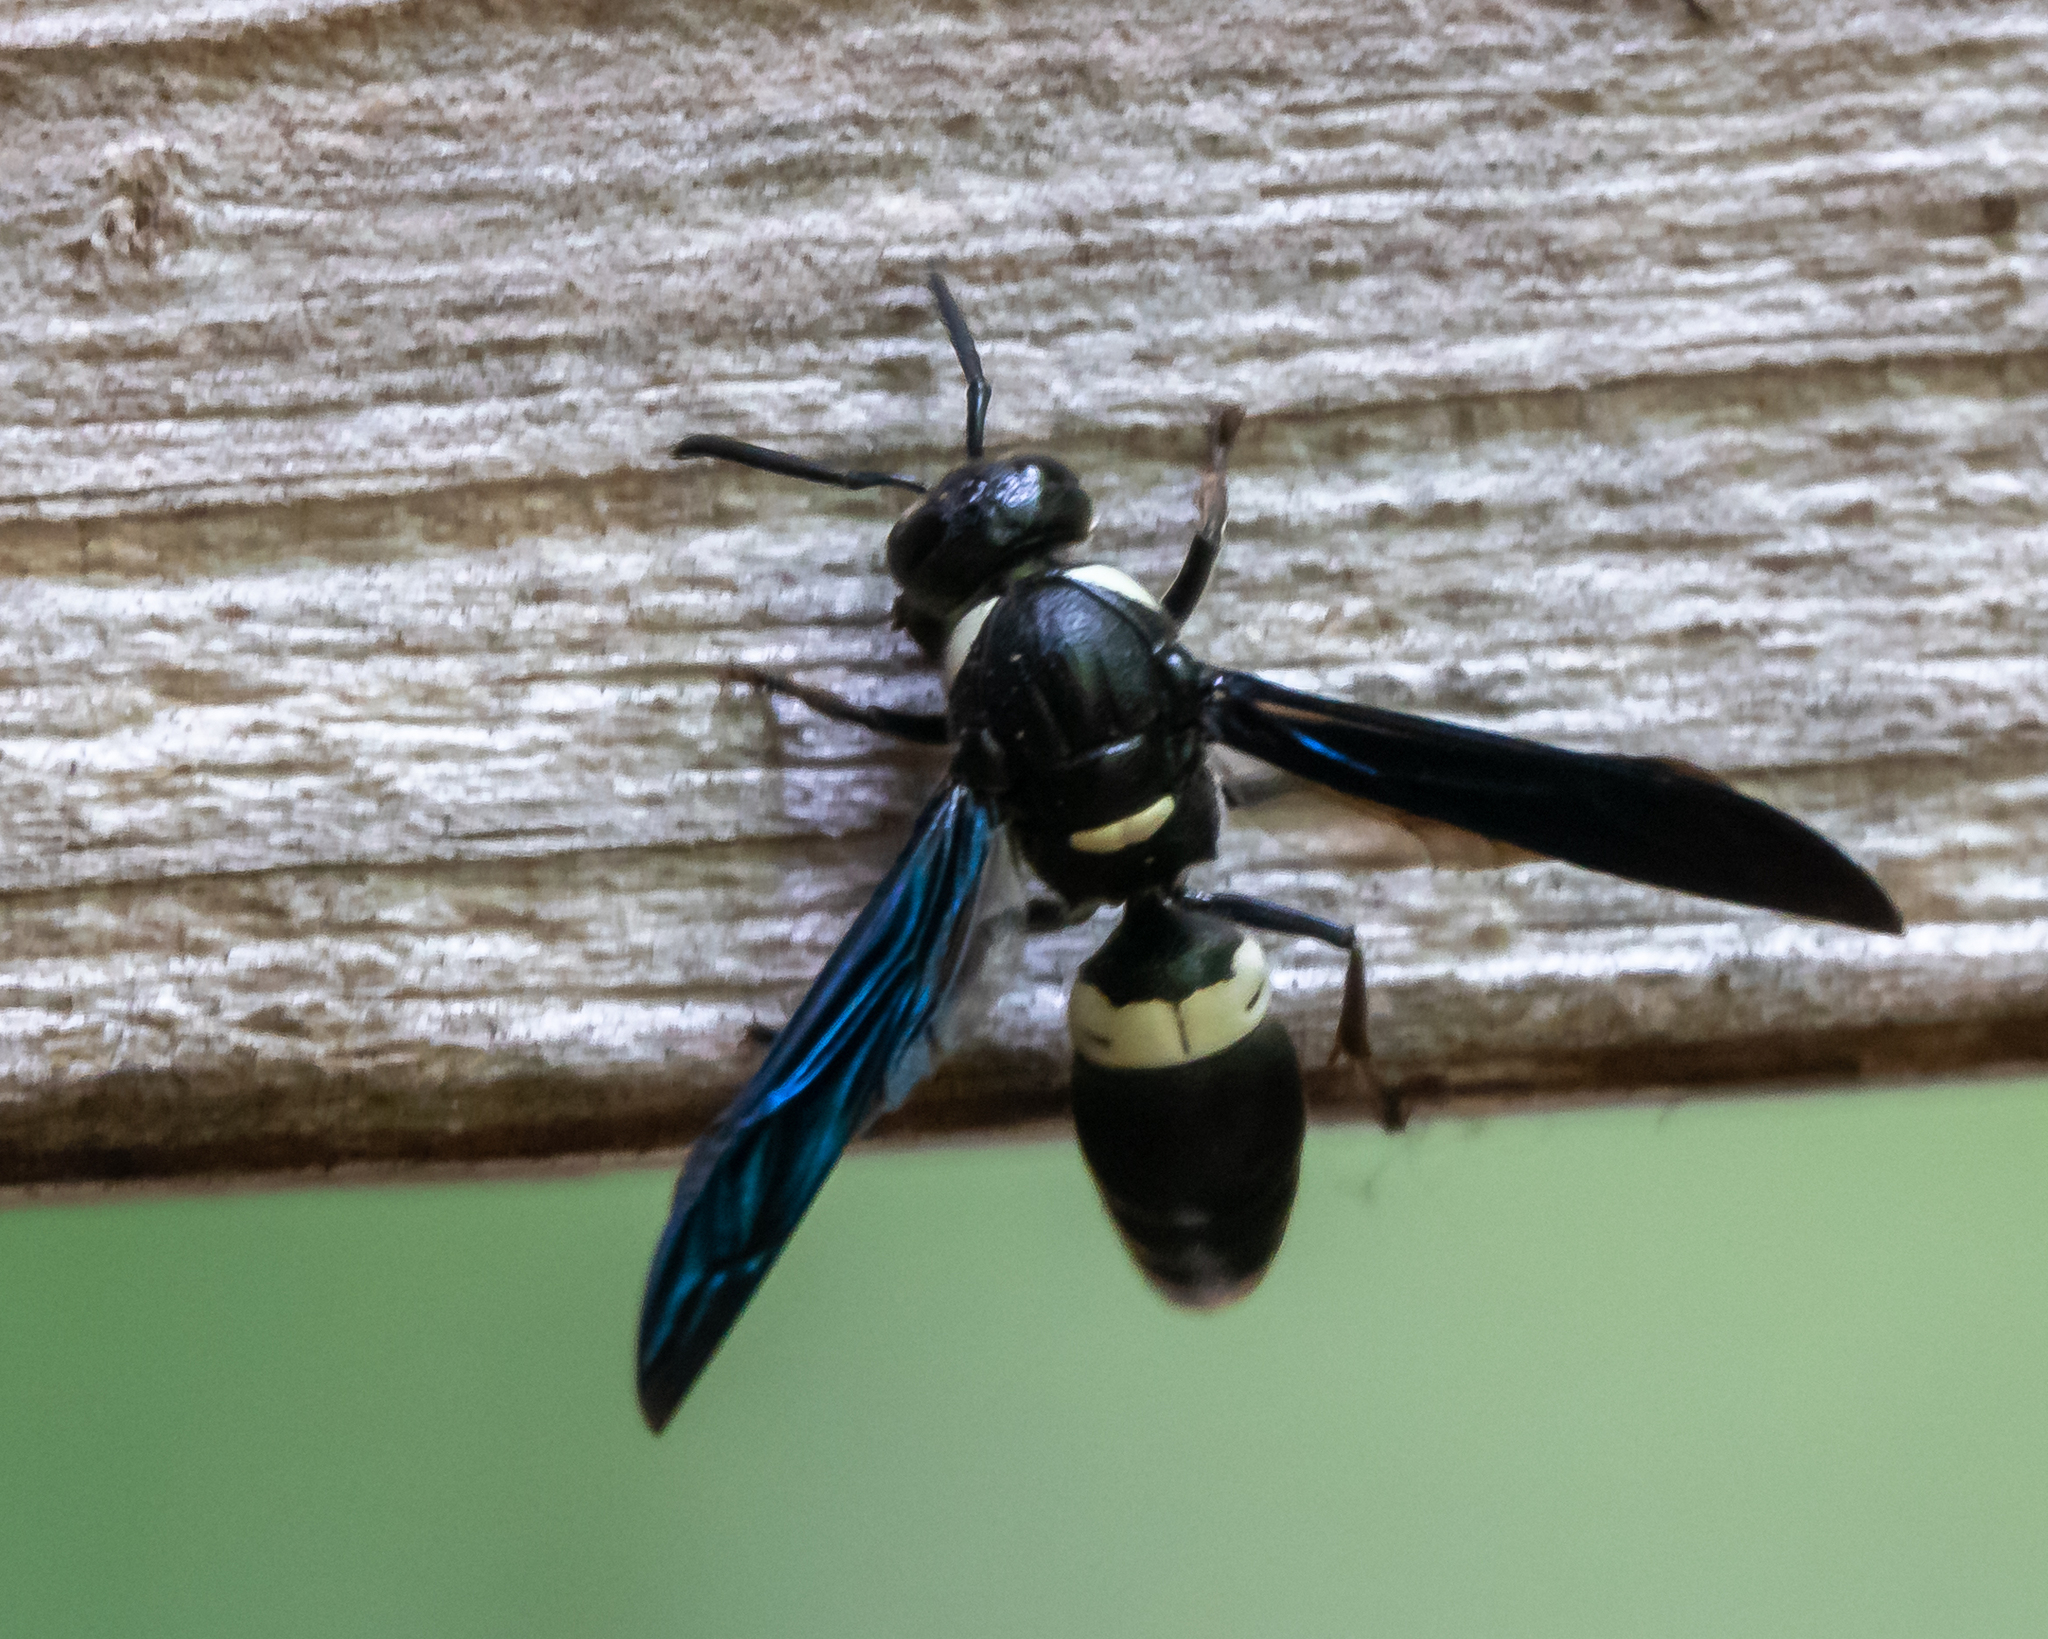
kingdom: Animalia
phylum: Arthropoda
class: Insecta
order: Hymenoptera
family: Eumenidae
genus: Monobia
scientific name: Monobia quadridens
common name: Four-toothed mason wasp
